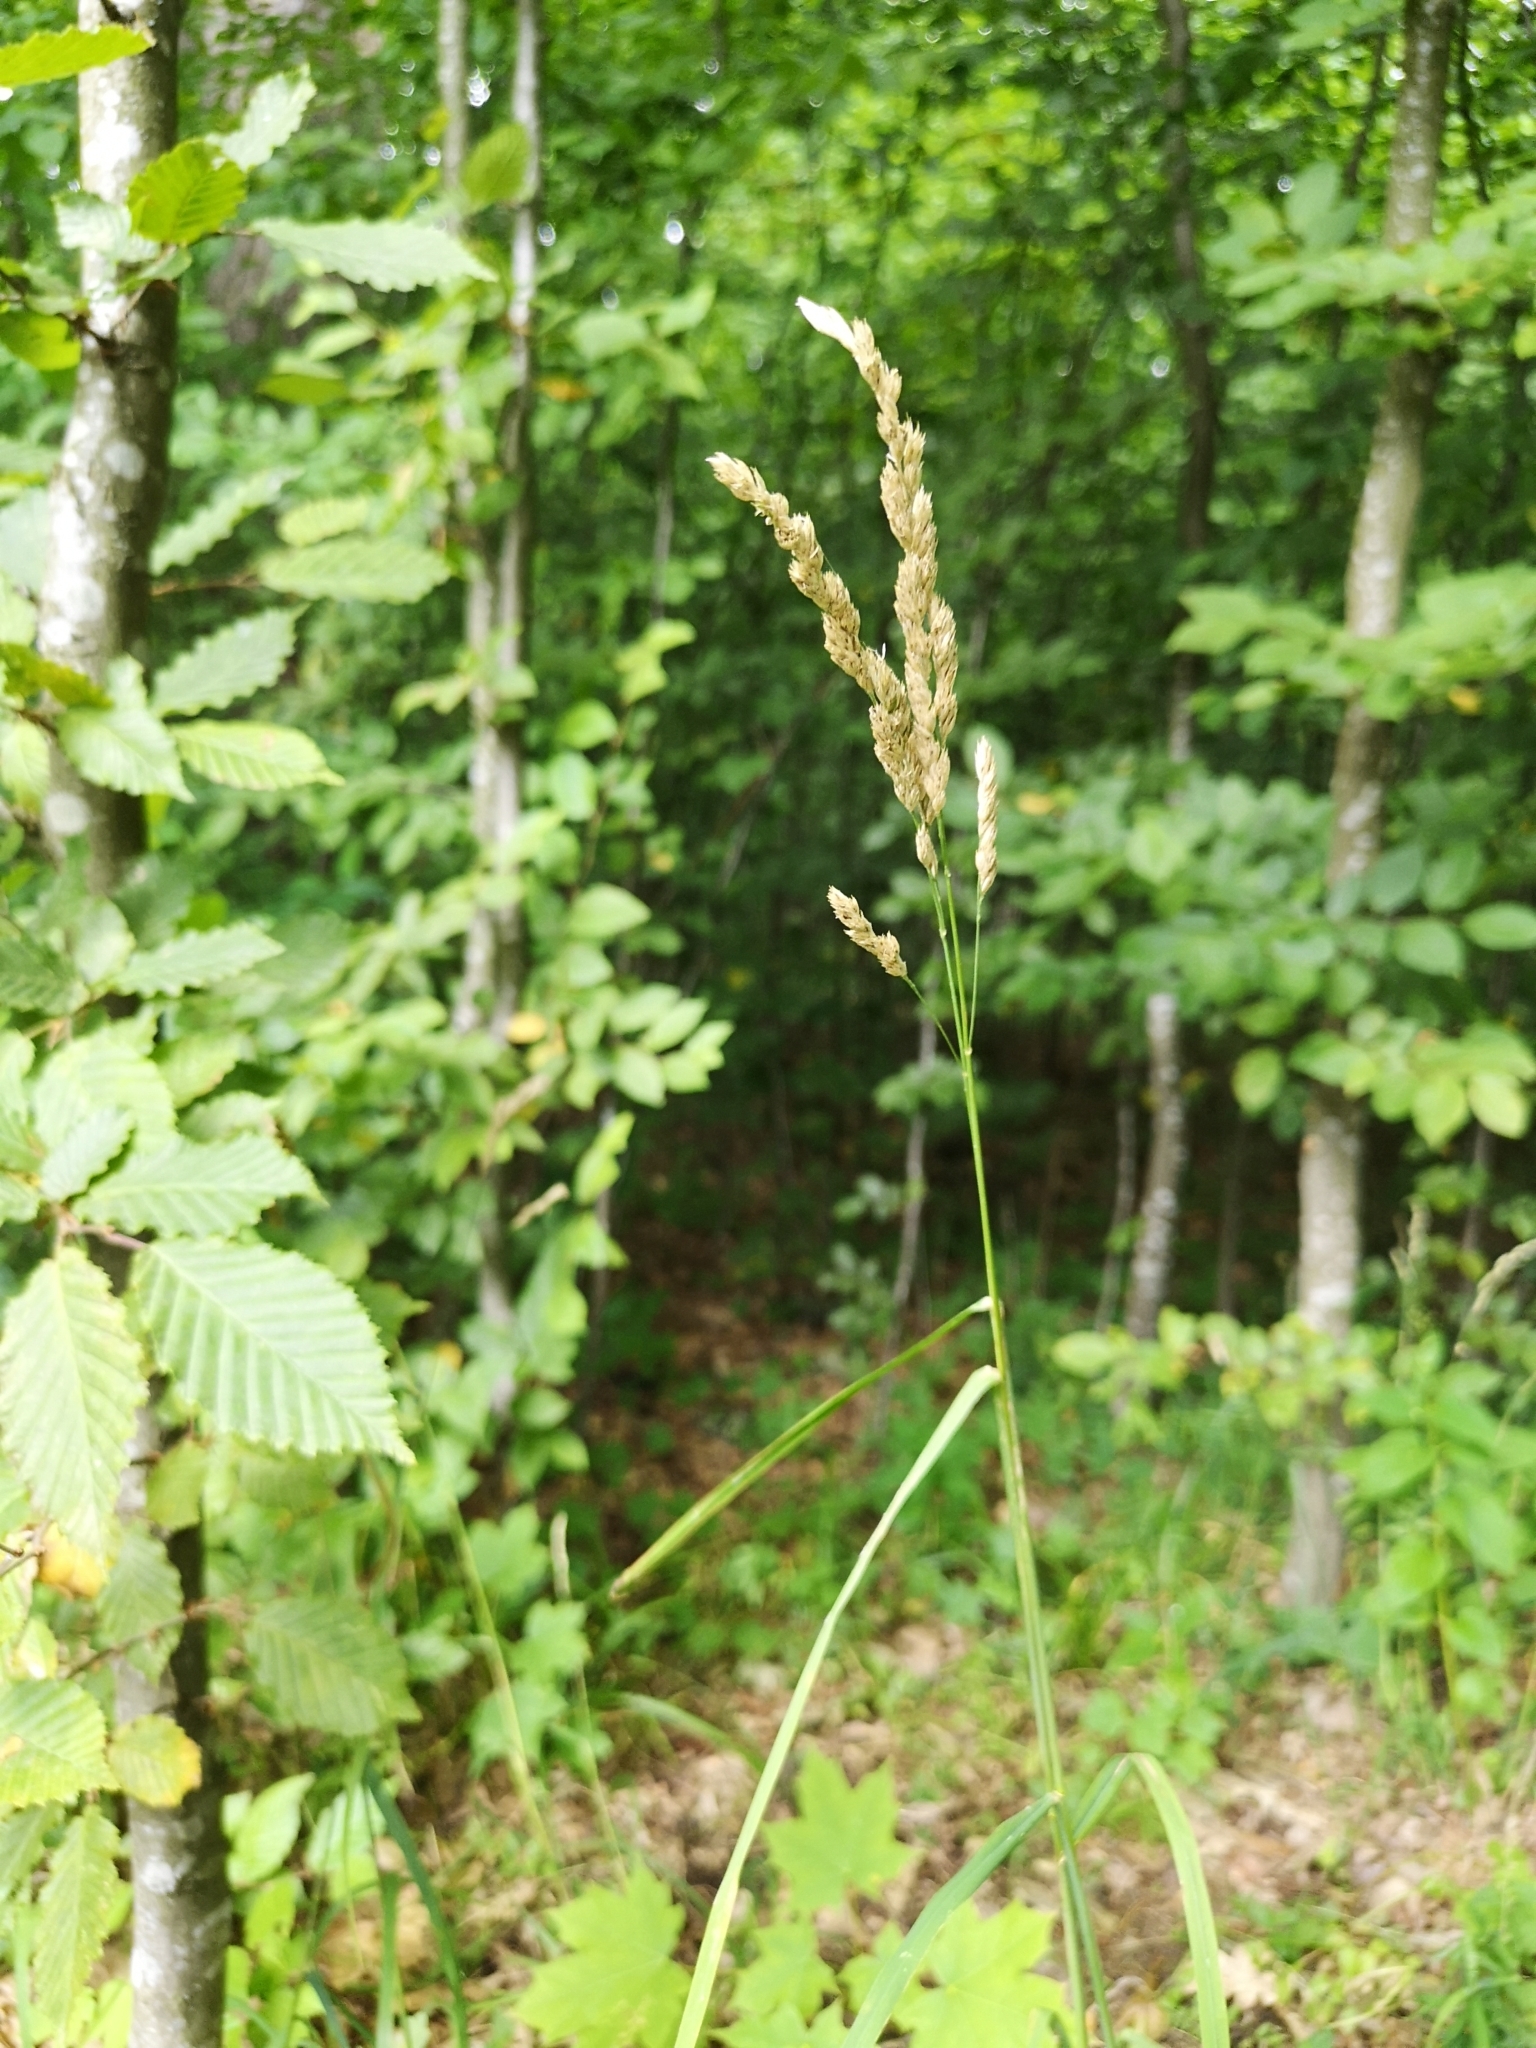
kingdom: Plantae
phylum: Tracheophyta
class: Liliopsida
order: Poales
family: Poaceae
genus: Dactylis
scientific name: Dactylis glomerata
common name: Orchardgrass
